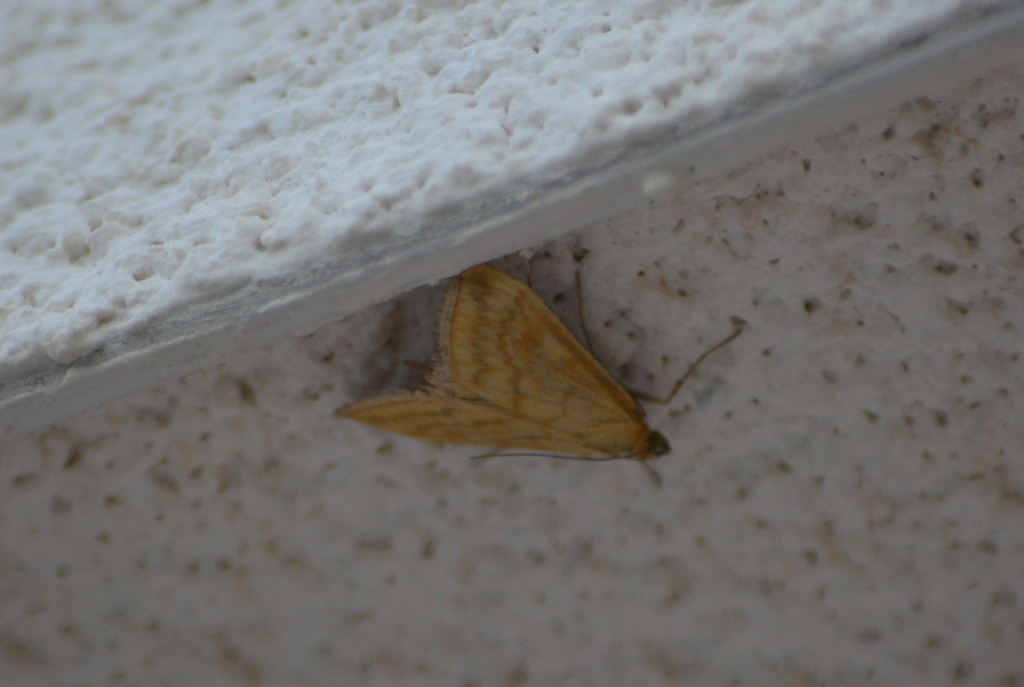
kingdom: Animalia
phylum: Arthropoda
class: Insecta
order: Lepidoptera
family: Crambidae
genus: Sitochroa
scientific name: Sitochroa verticalis
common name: Lesser pearl
